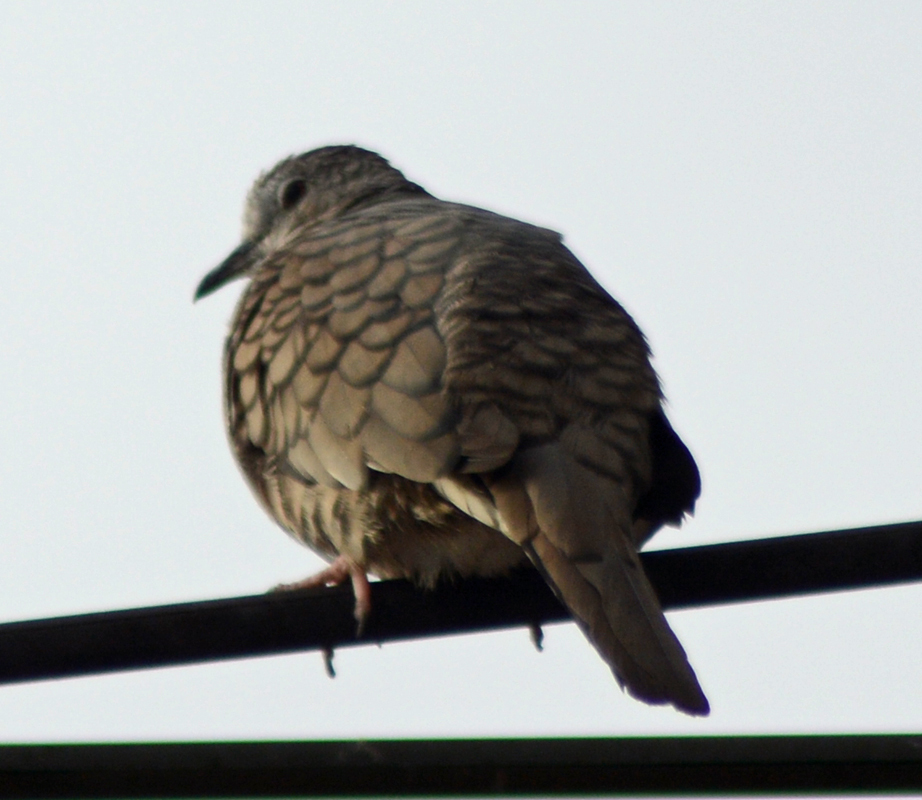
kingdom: Animalia
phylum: Chordata
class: Aves
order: Columbiformes
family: Columbidae
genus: Columbina
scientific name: Columbina inca
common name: Inca dove
